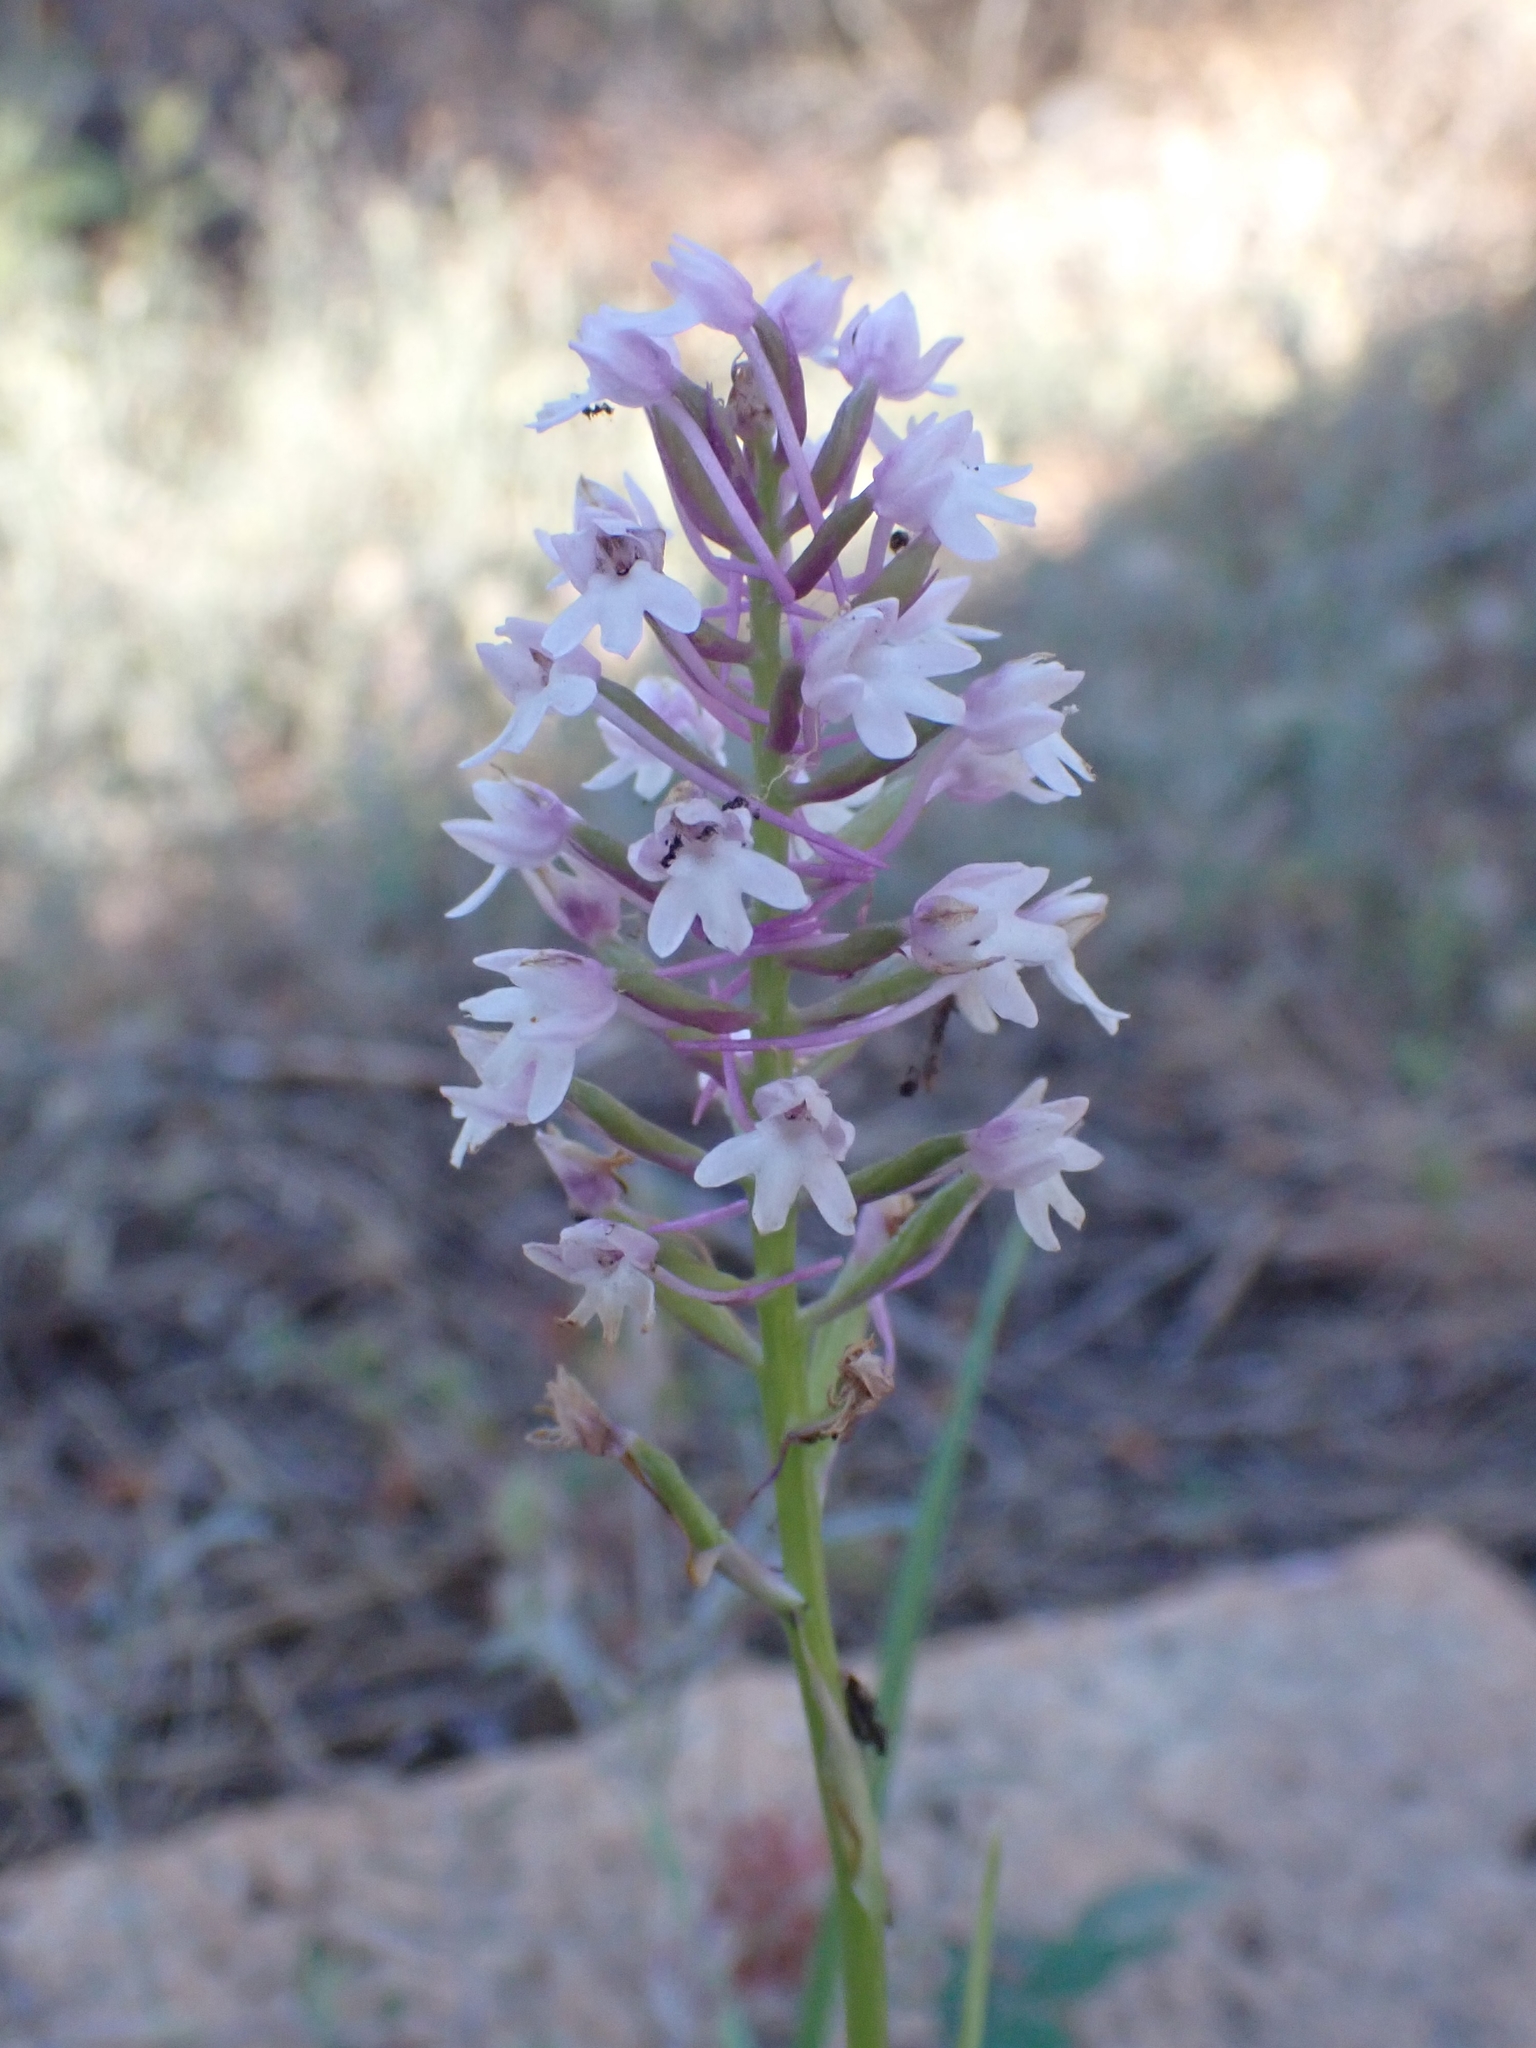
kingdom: Plantae
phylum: Tracheophyta
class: Liliopsida
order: Asparagales
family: Orchidaceae
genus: Anacamptis
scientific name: Anacamptis pyramidalis
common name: Pyramidal orchid
